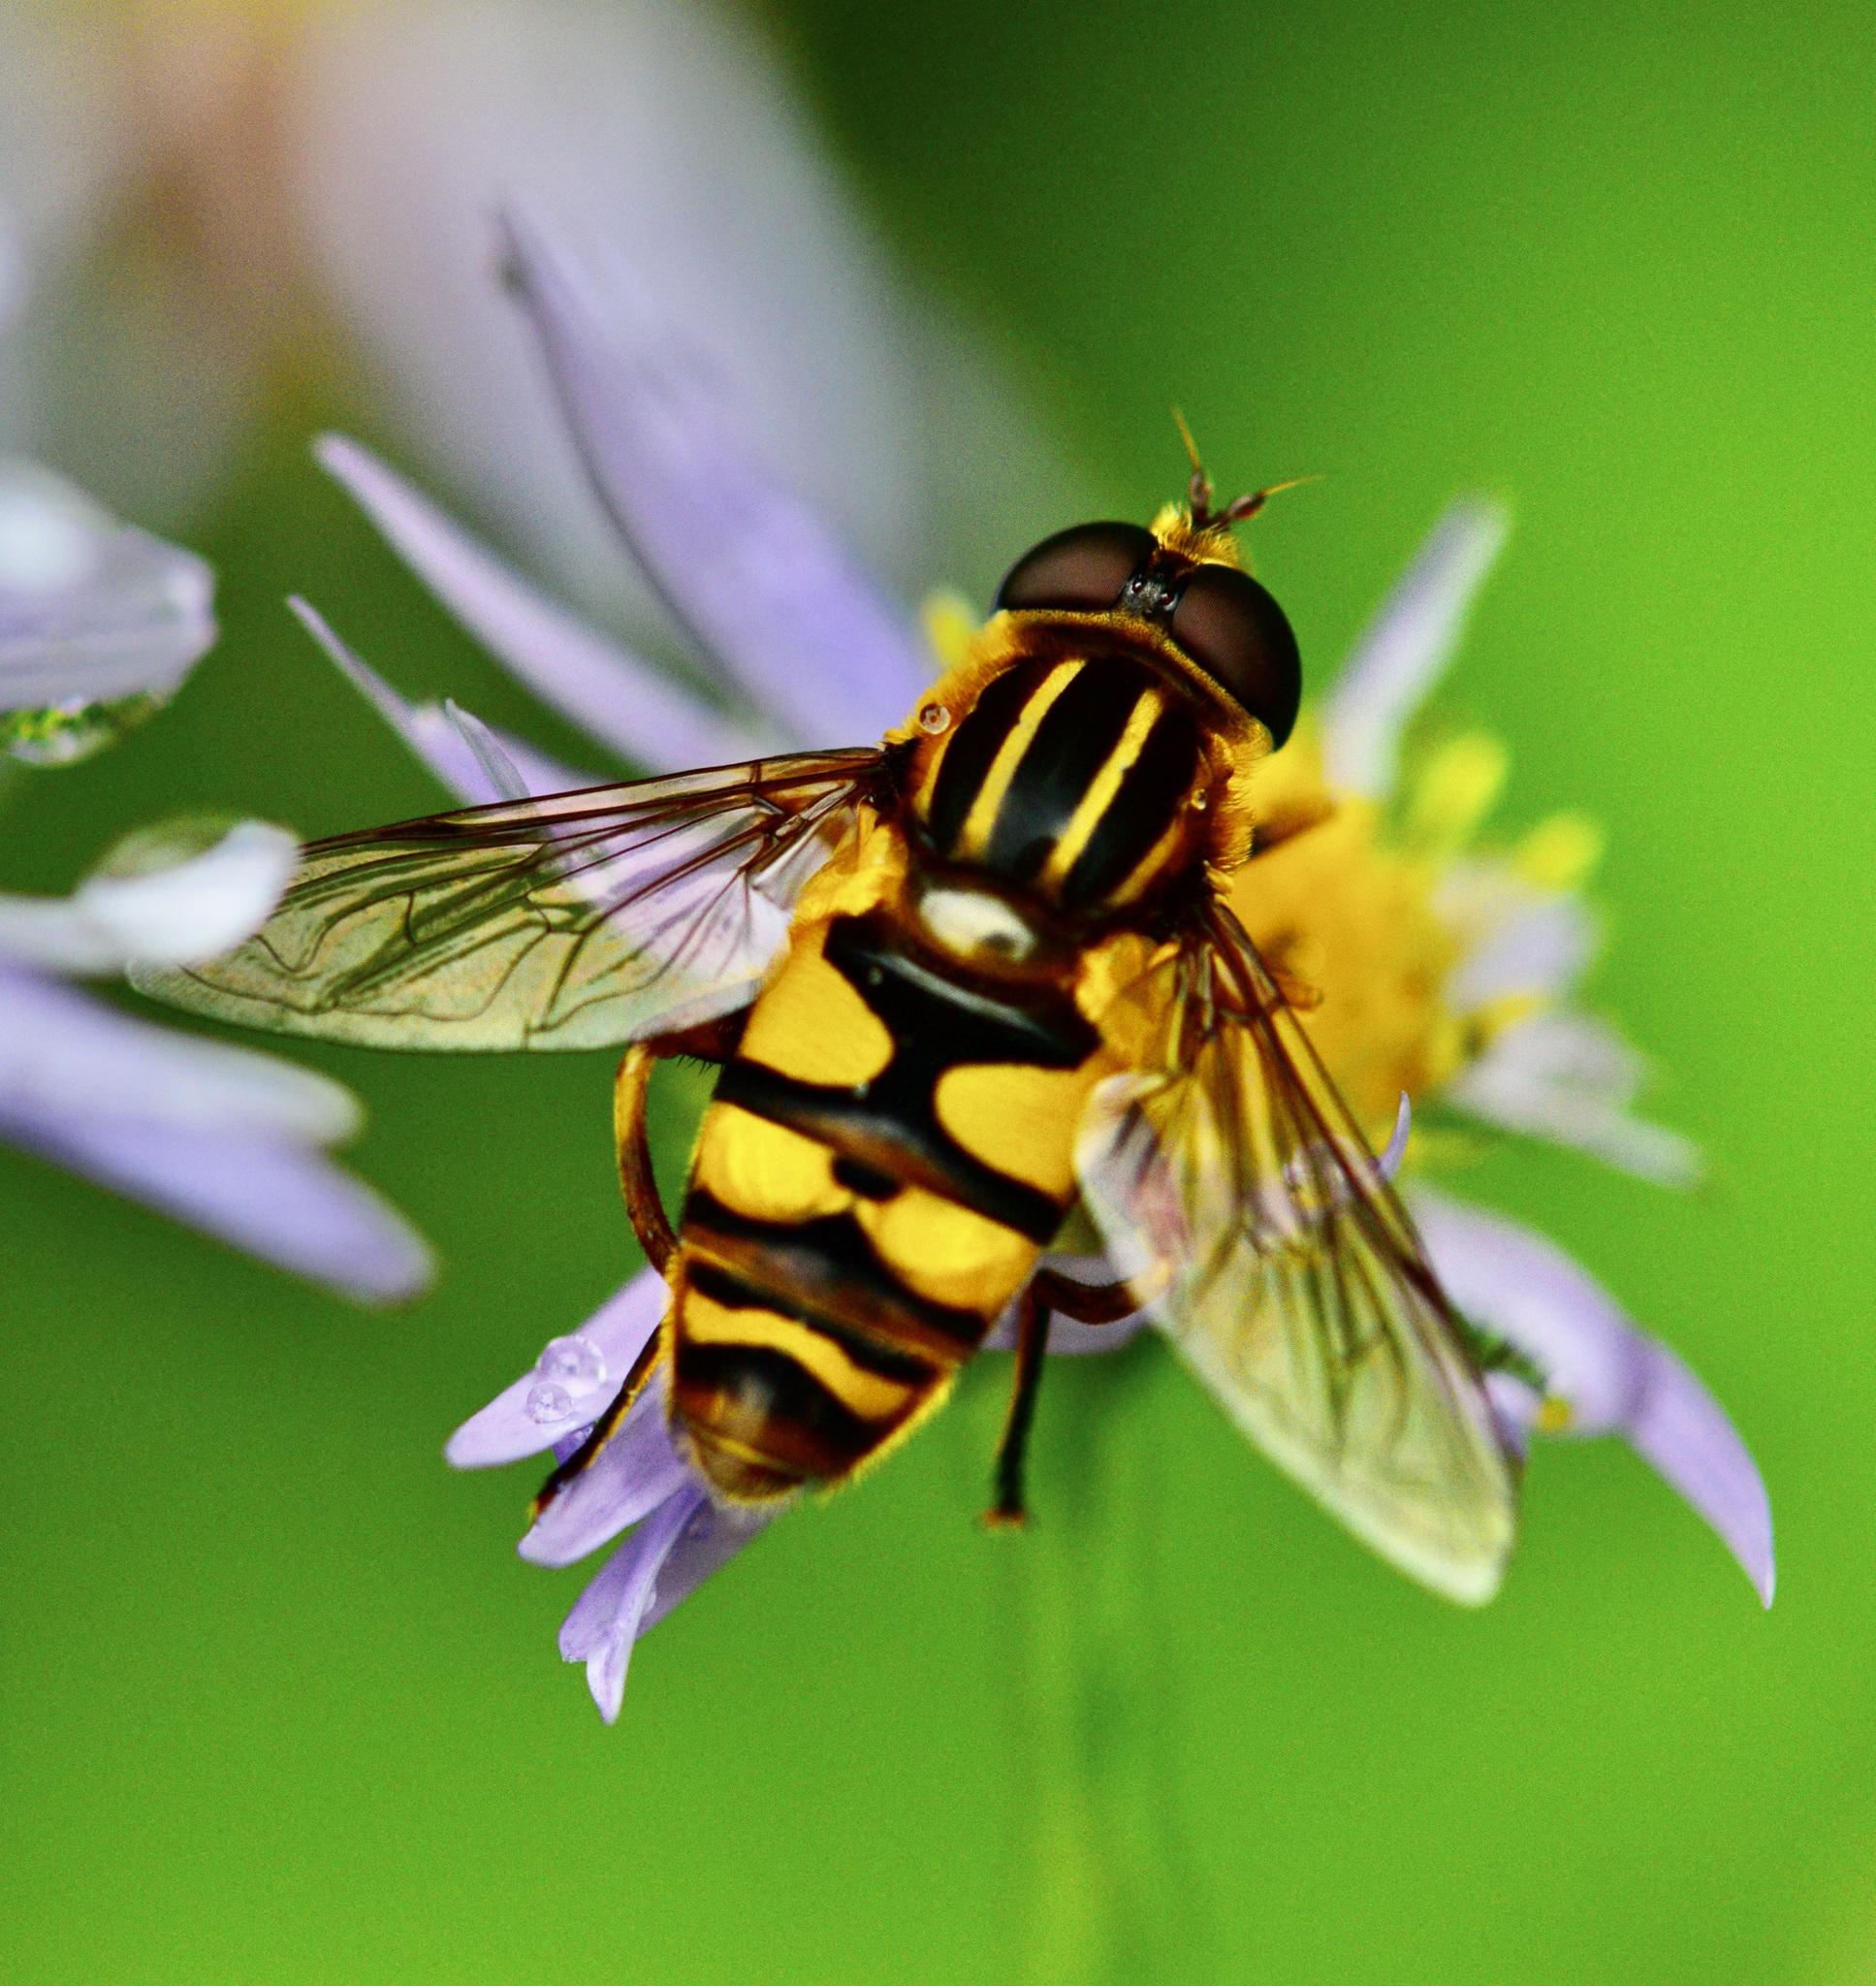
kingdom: Animalia
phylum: Arthropoda
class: Insecta
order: Diptera
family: Syrphidae
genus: Helophilus
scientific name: Helophilus fasciatus
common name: Narrow-headed marsh fly
